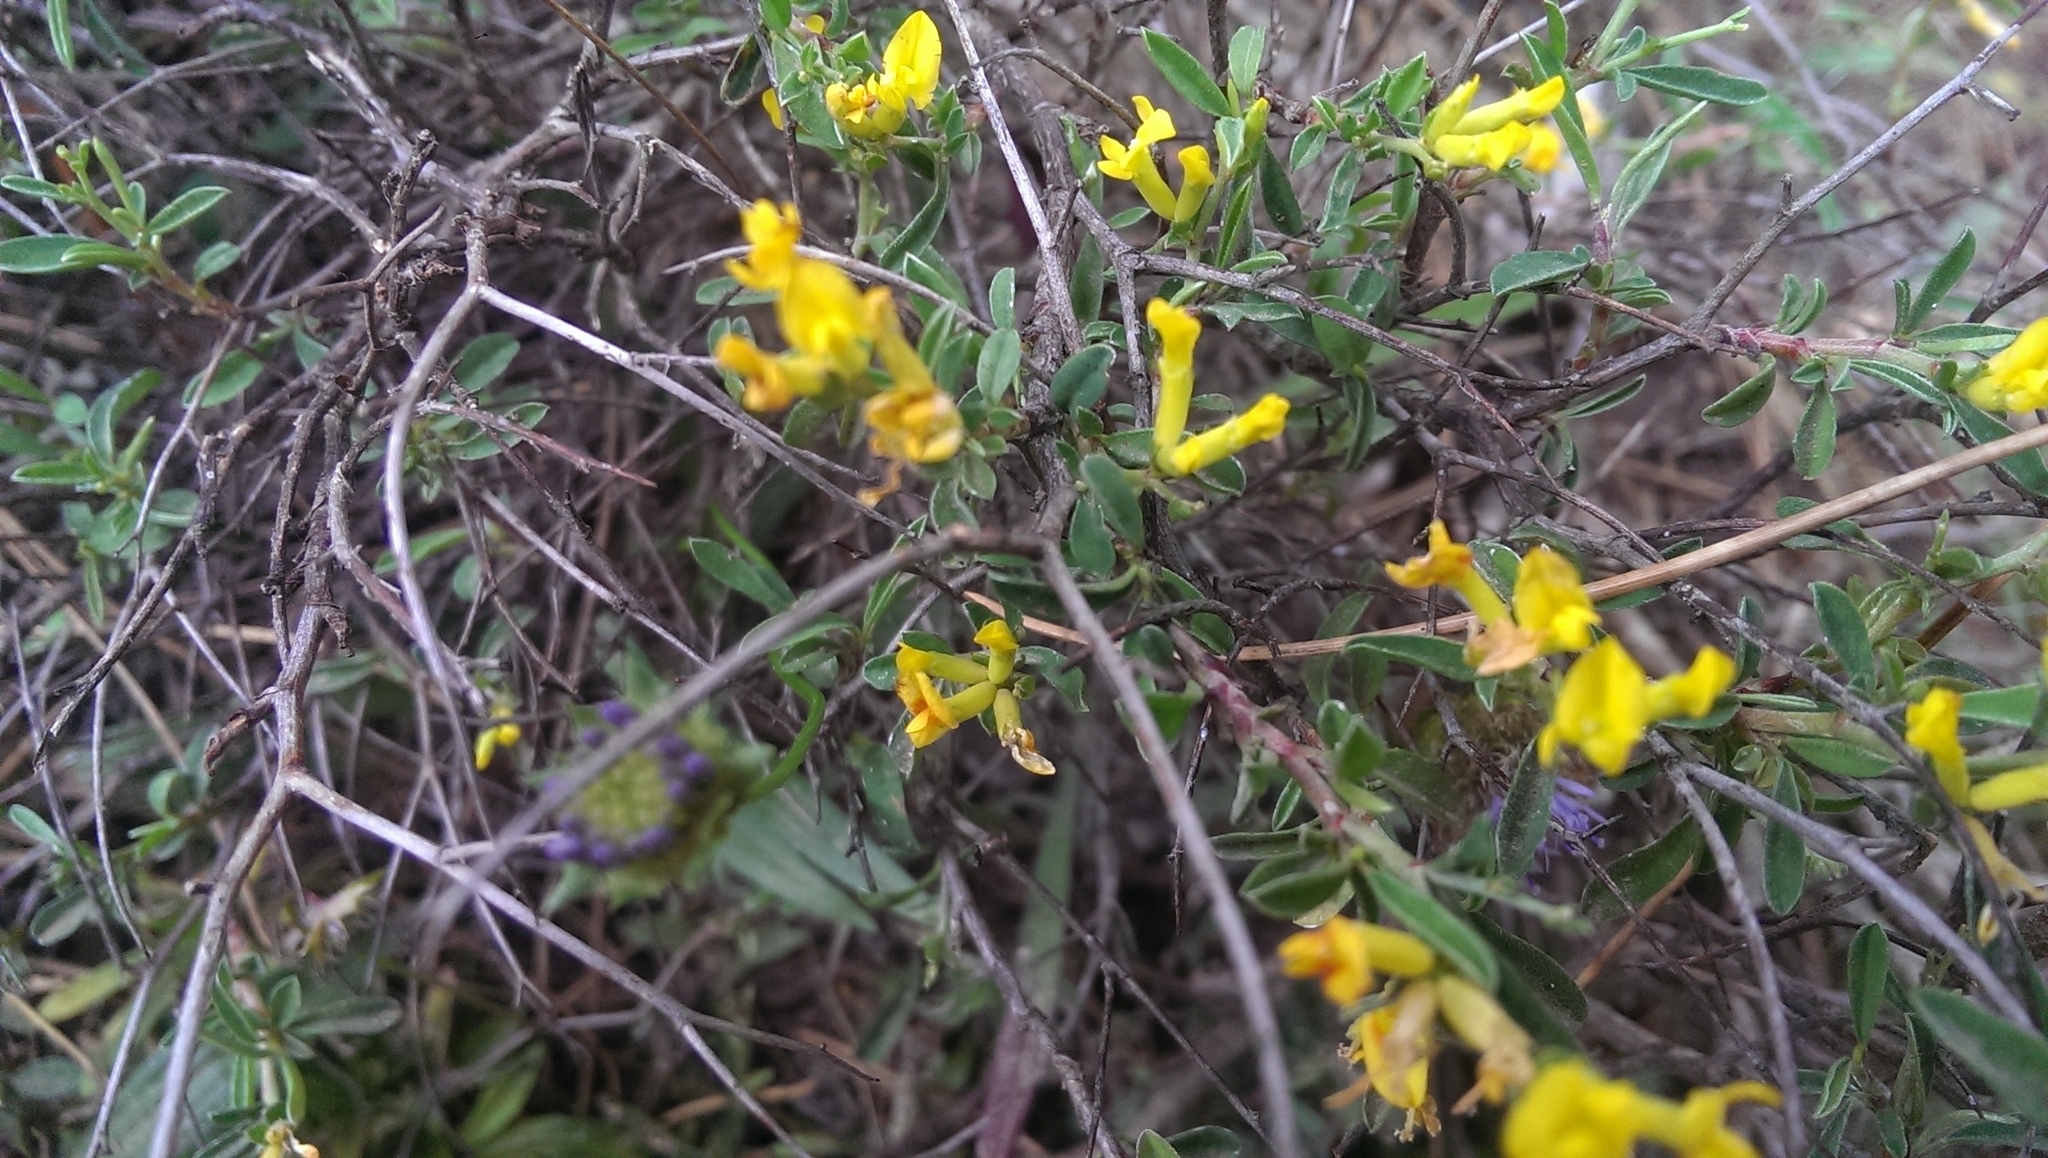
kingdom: Plantae
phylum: Tracheophyta
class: Magnoliopsida
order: Fabales
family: Fabaceae
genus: Anthyllis
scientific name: Anthyllis hermanniae
